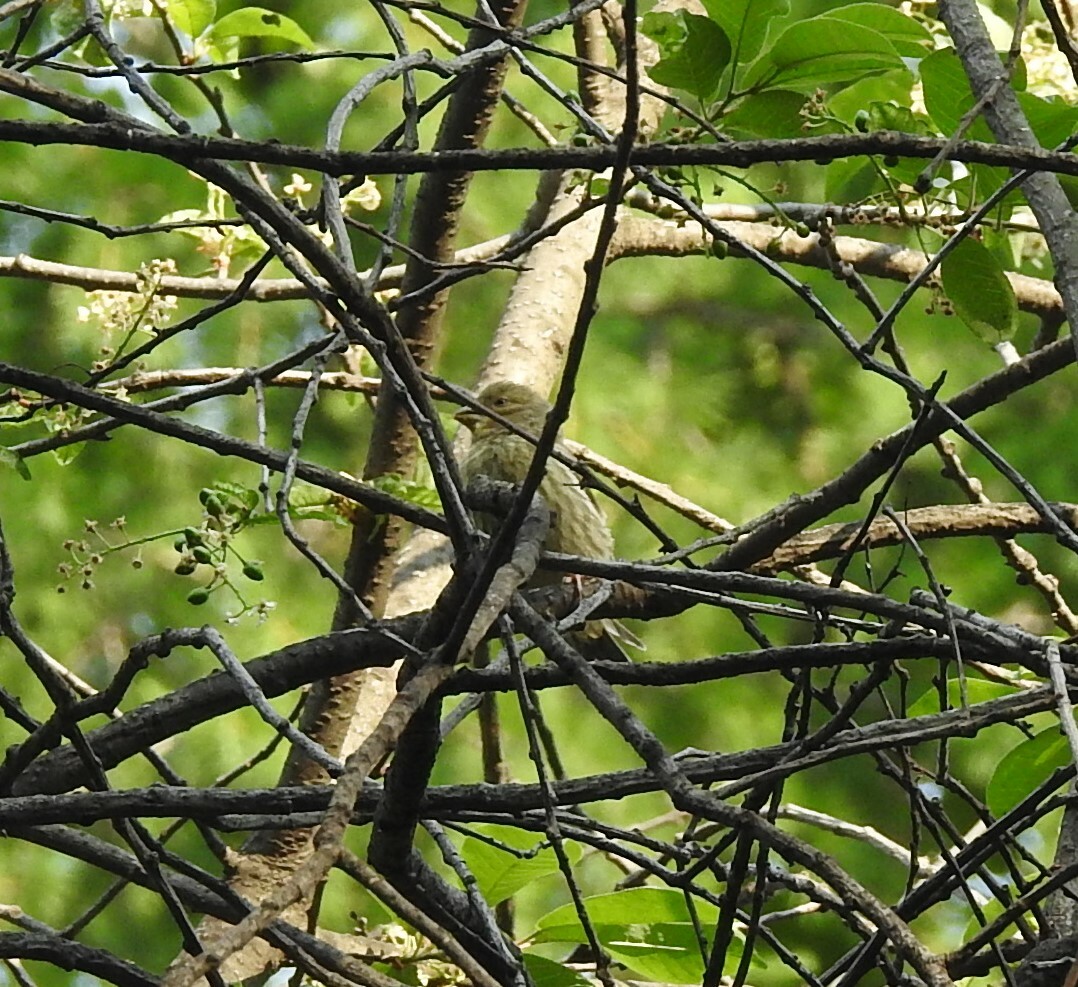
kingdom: Plantae
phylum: Tracheophyta
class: Liliopsida
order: Poales
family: Poaceae
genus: Chloris
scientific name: Chloris chloris
